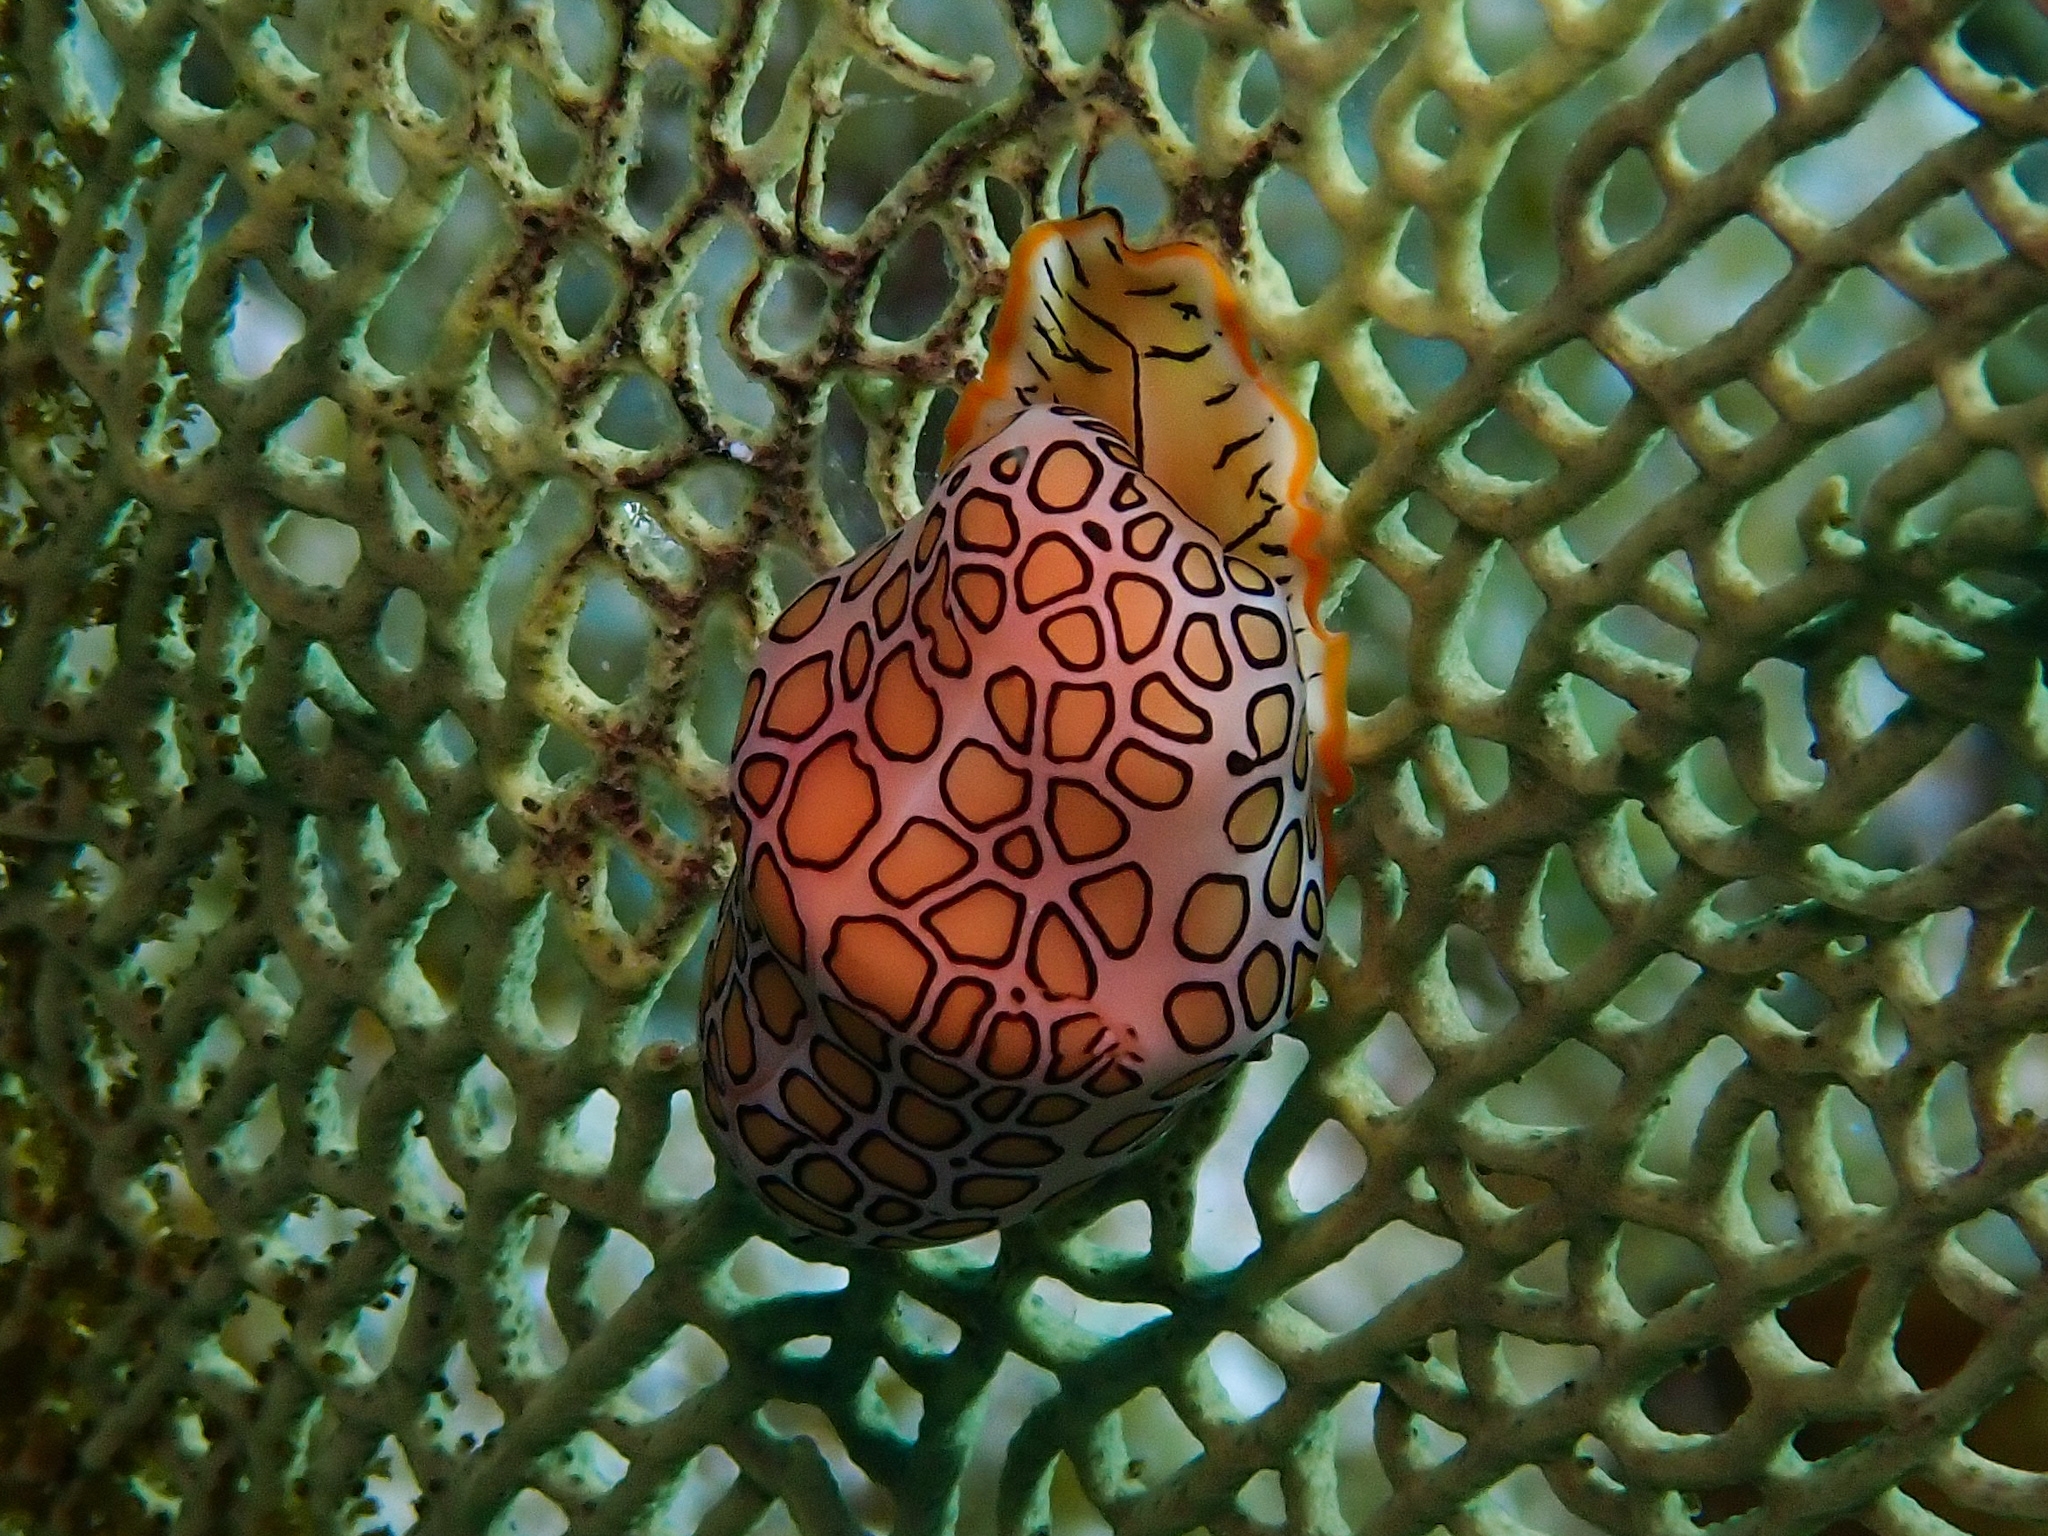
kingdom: Animalia
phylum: Mollusca
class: Gastropoda
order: Littorinimorpha
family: Ovulidae
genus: Cyphoma
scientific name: Cyphoma gibbosum
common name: Flamingo tongue
